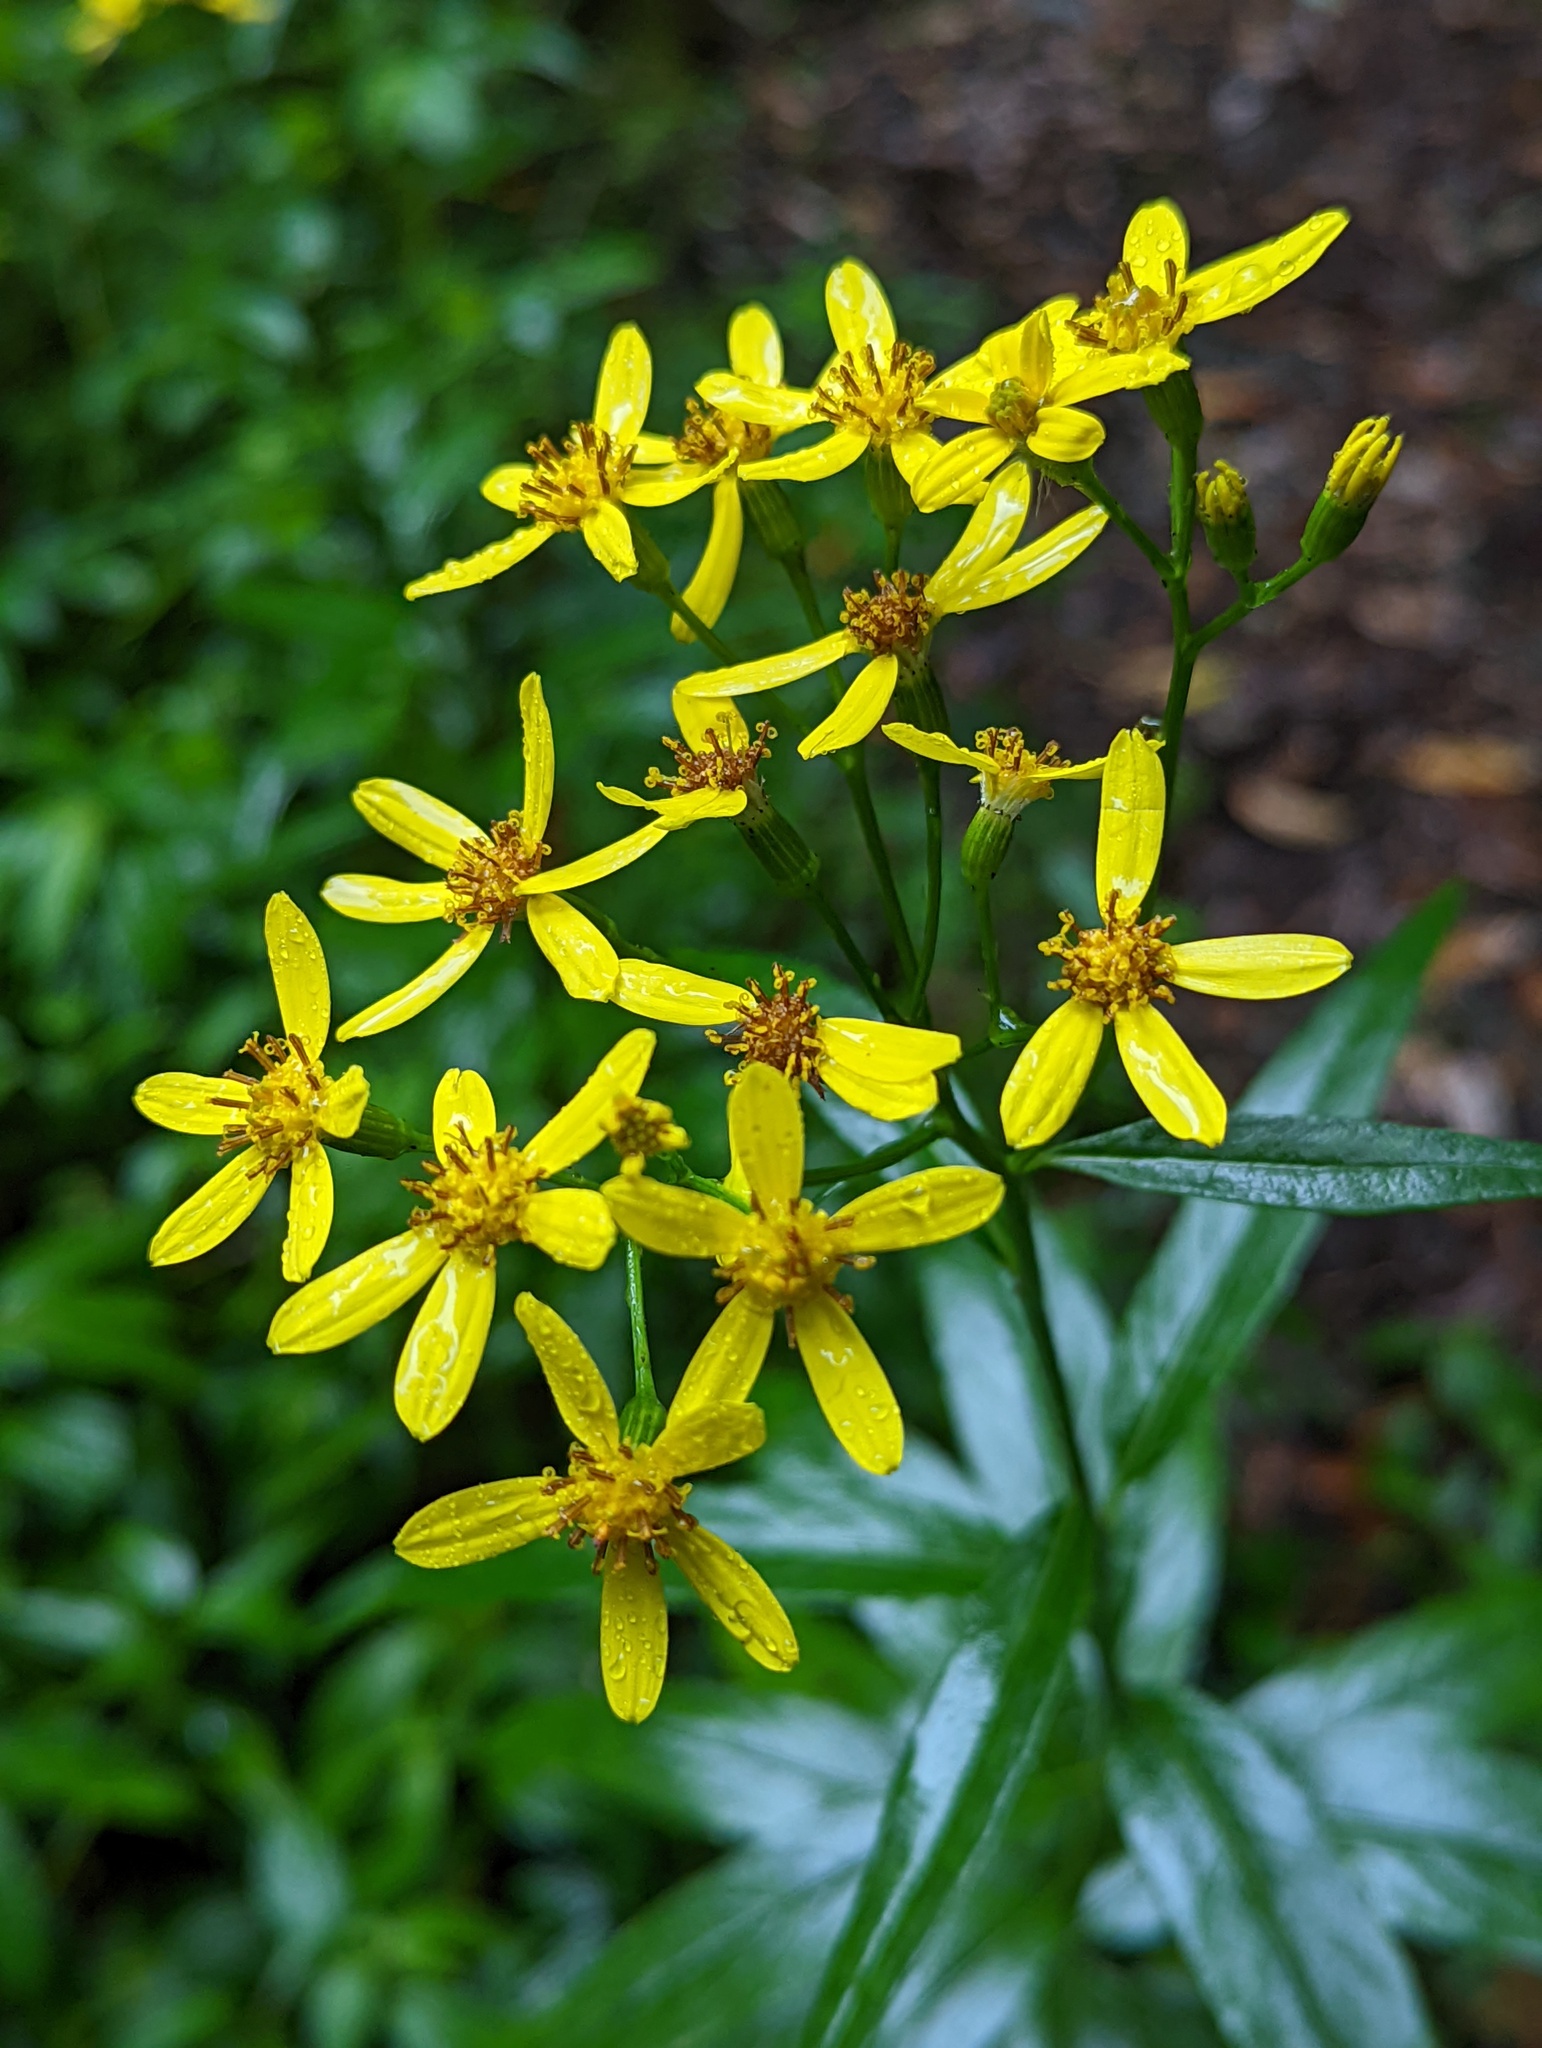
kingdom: Plantae
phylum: Tracheophyta
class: Magnoliopsida
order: Asterales
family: Asteraceae
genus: Senecio
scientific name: Senecio nemorensis
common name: Alpine ragwort
